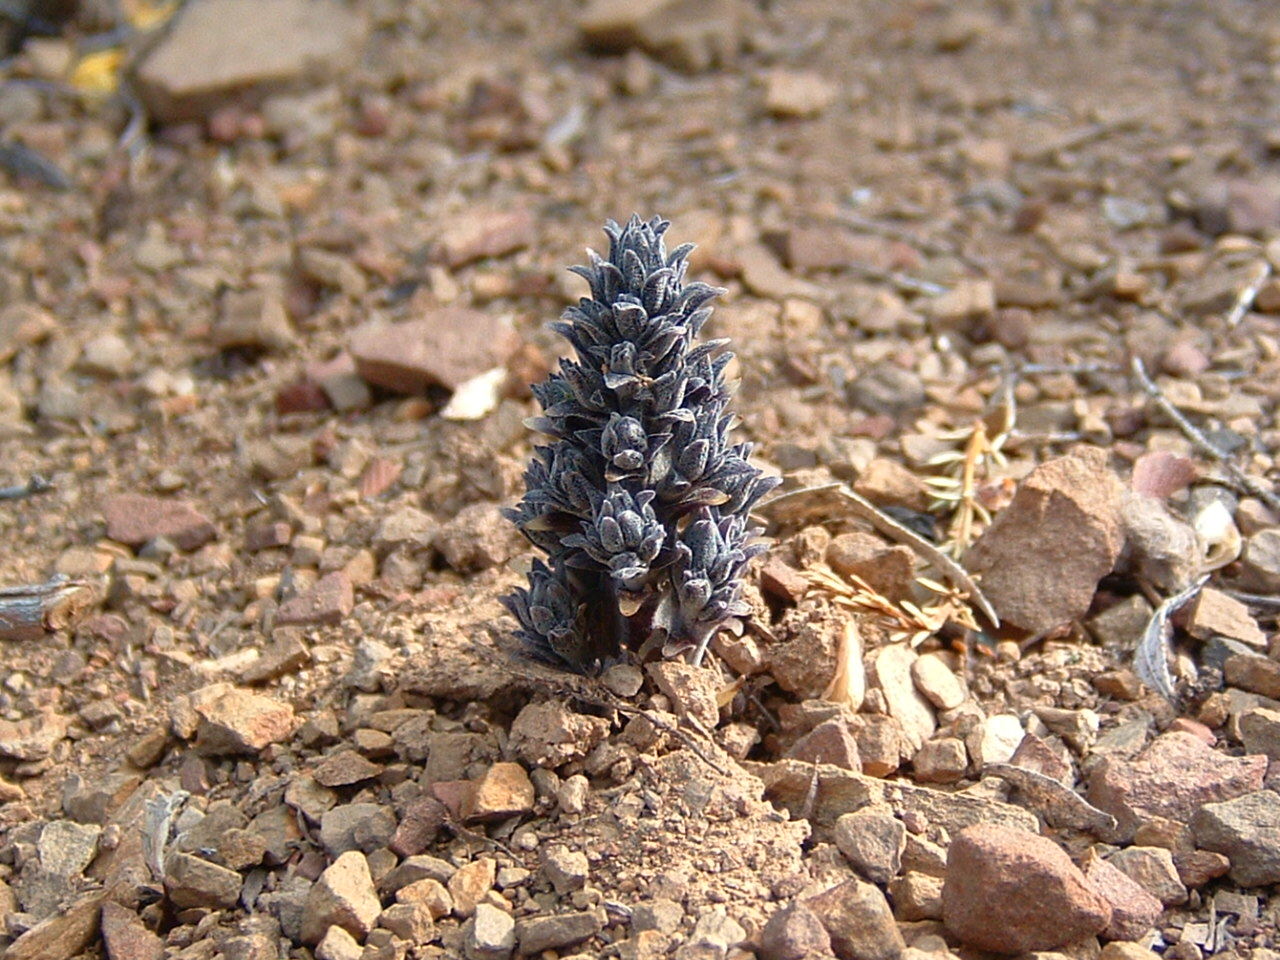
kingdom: Plantae
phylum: Tracheophyta
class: Magnoliopsida
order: Lamiales
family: Orobanchaceae
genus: Aphyllon
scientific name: Aphyllon tuberosum
